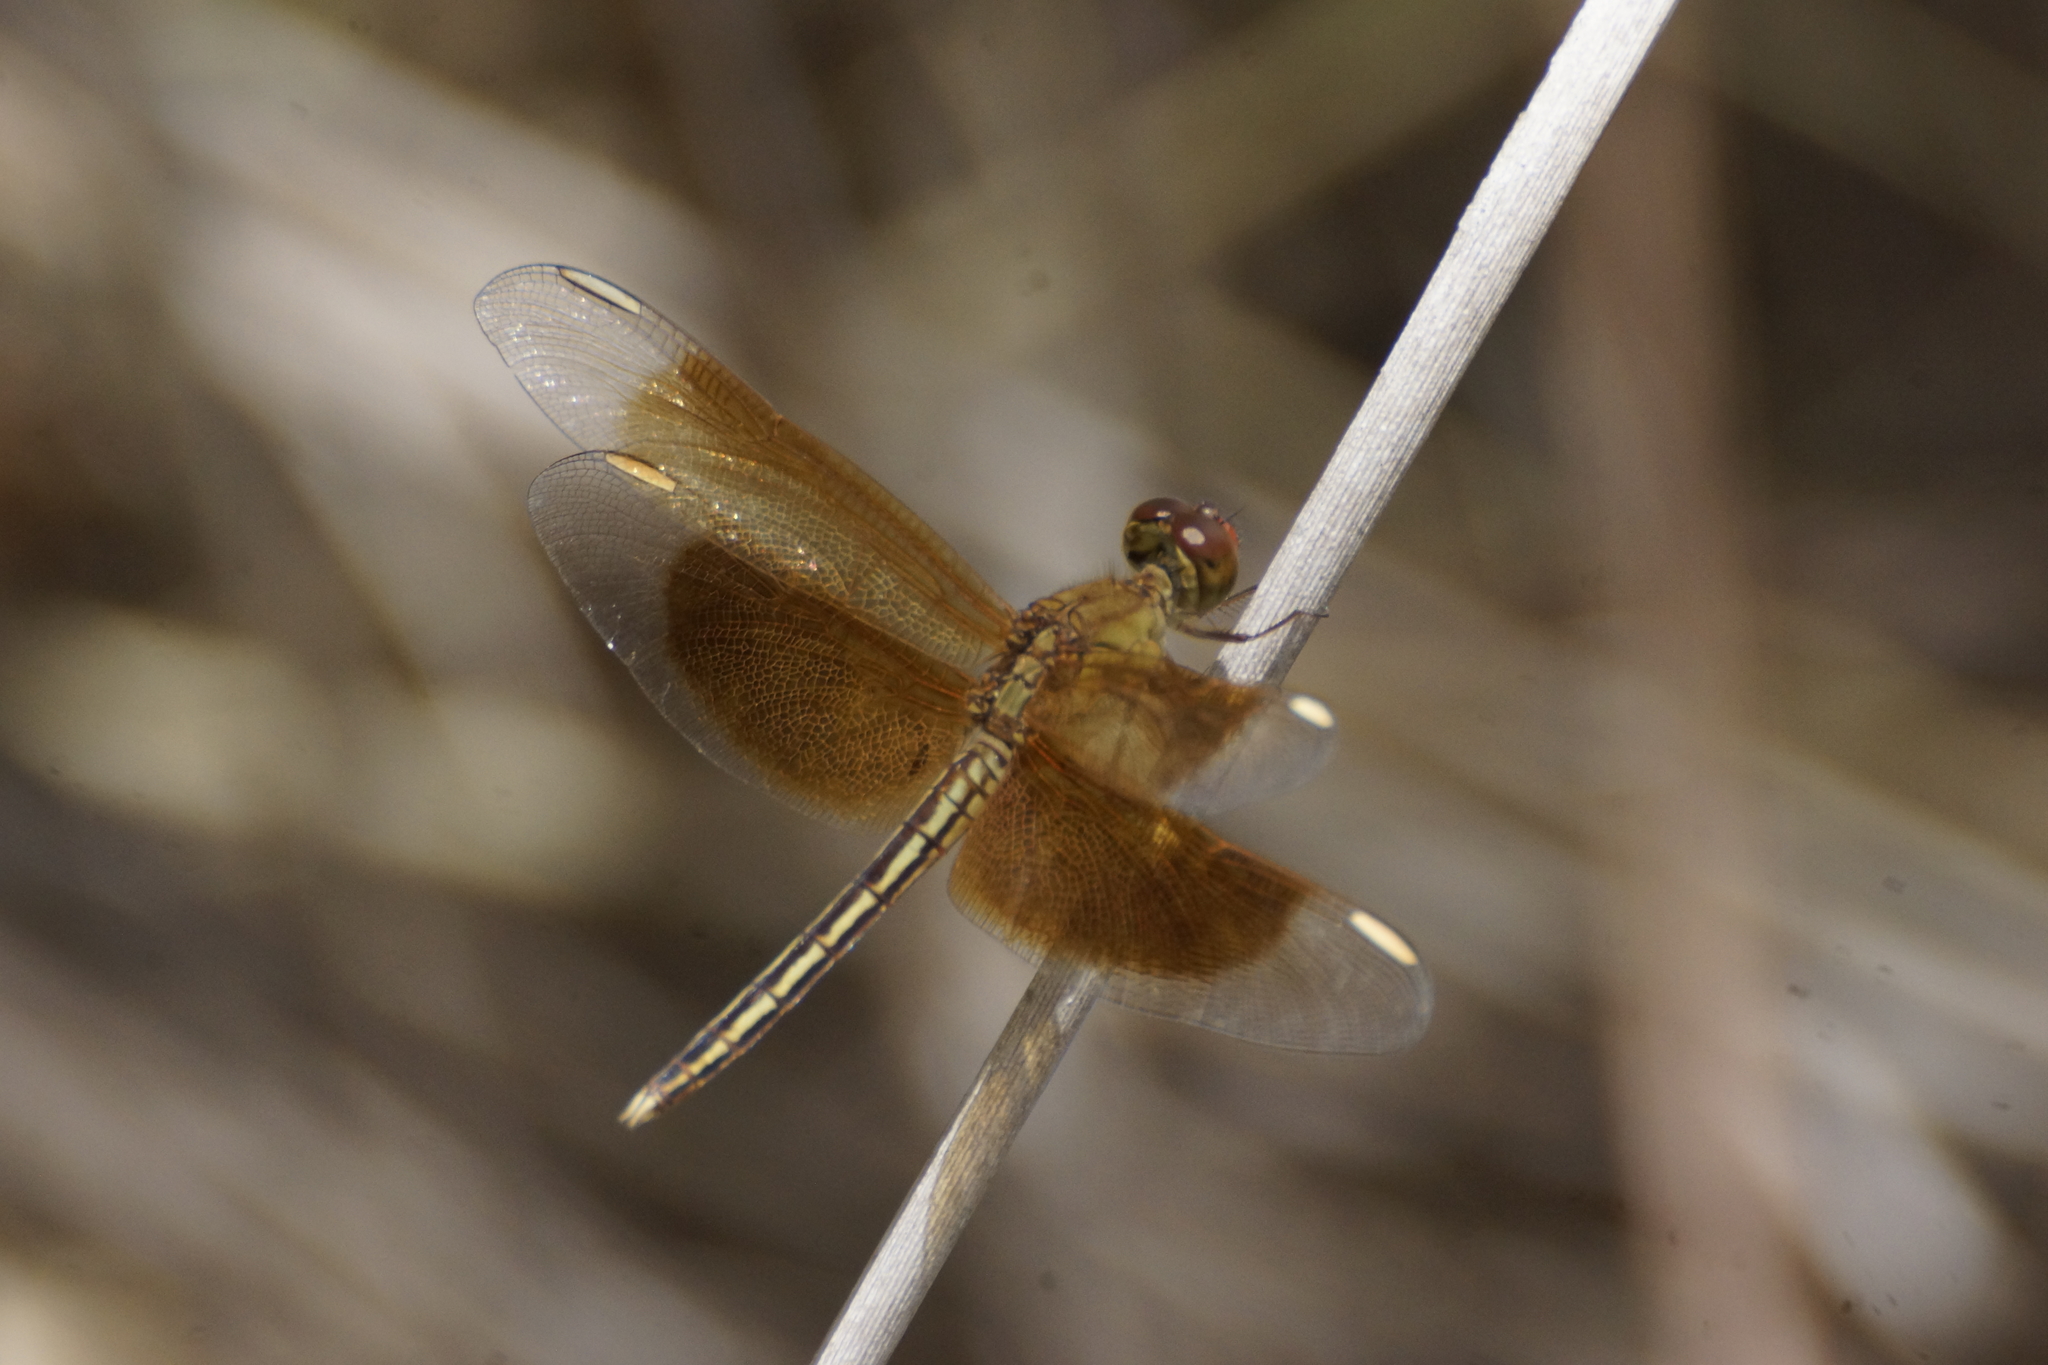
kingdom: Animalia
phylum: Arthropoda
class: Insecta
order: Odonata
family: Libellulidae
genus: Neurothemis
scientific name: Neurothemis stigmatizans
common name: Painted grasshawk
